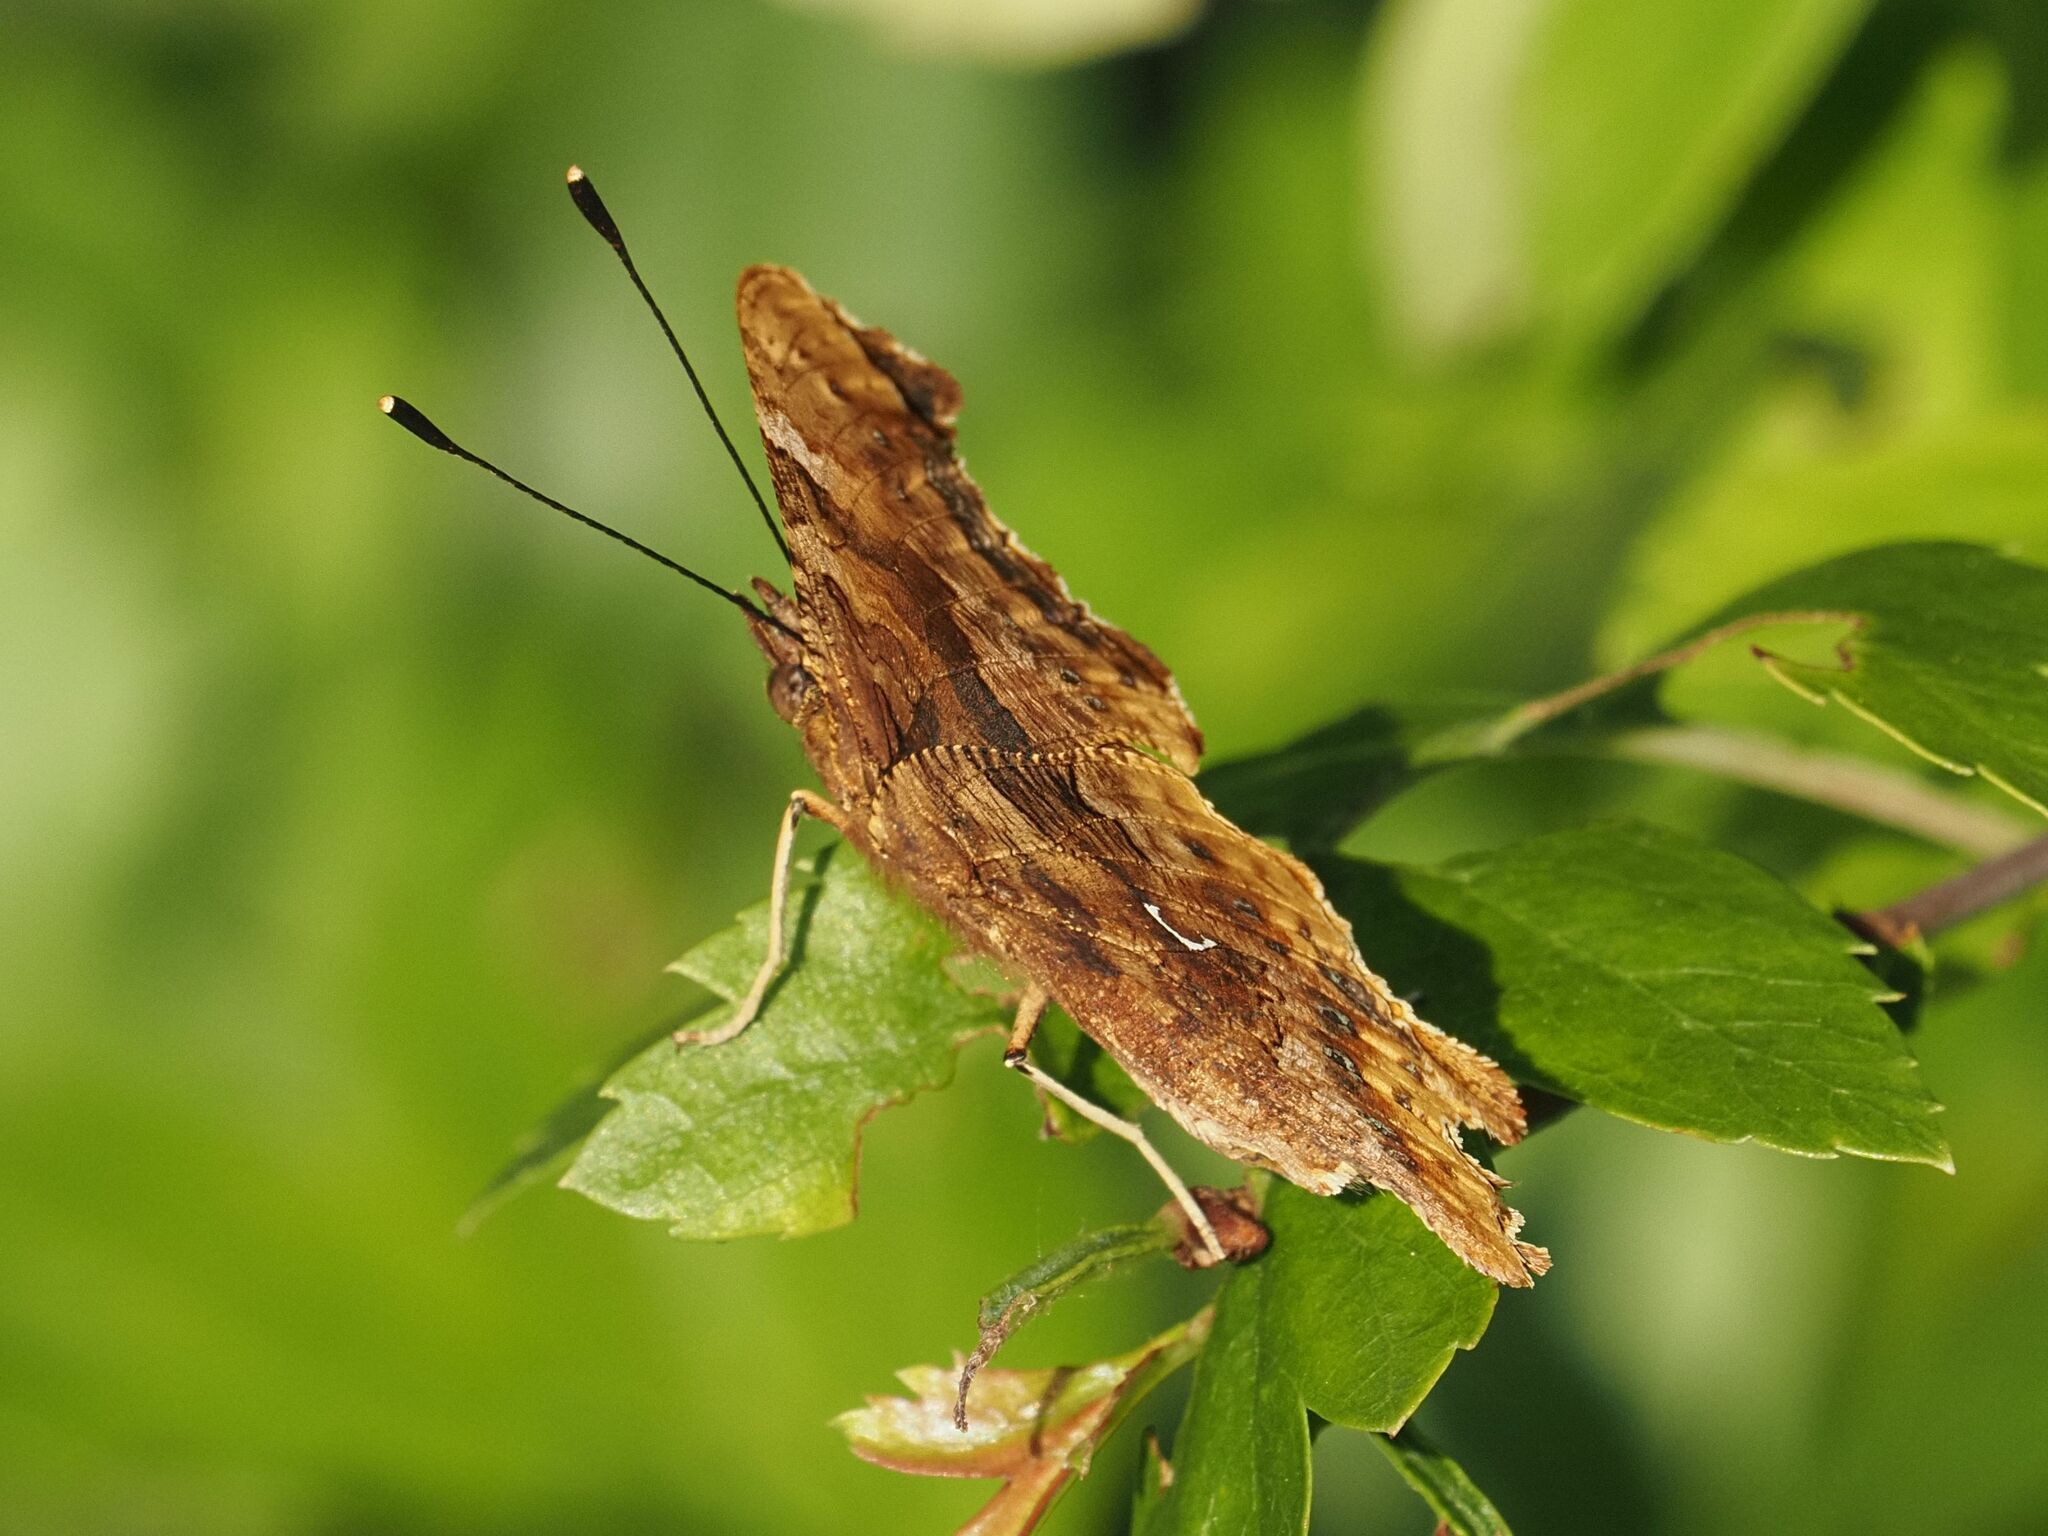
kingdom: Animalia
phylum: Arthropoda
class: Insecta
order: Lepidoptera
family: Nymphalidae
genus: Polygonia
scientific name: Polygonia c-album
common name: Comma
